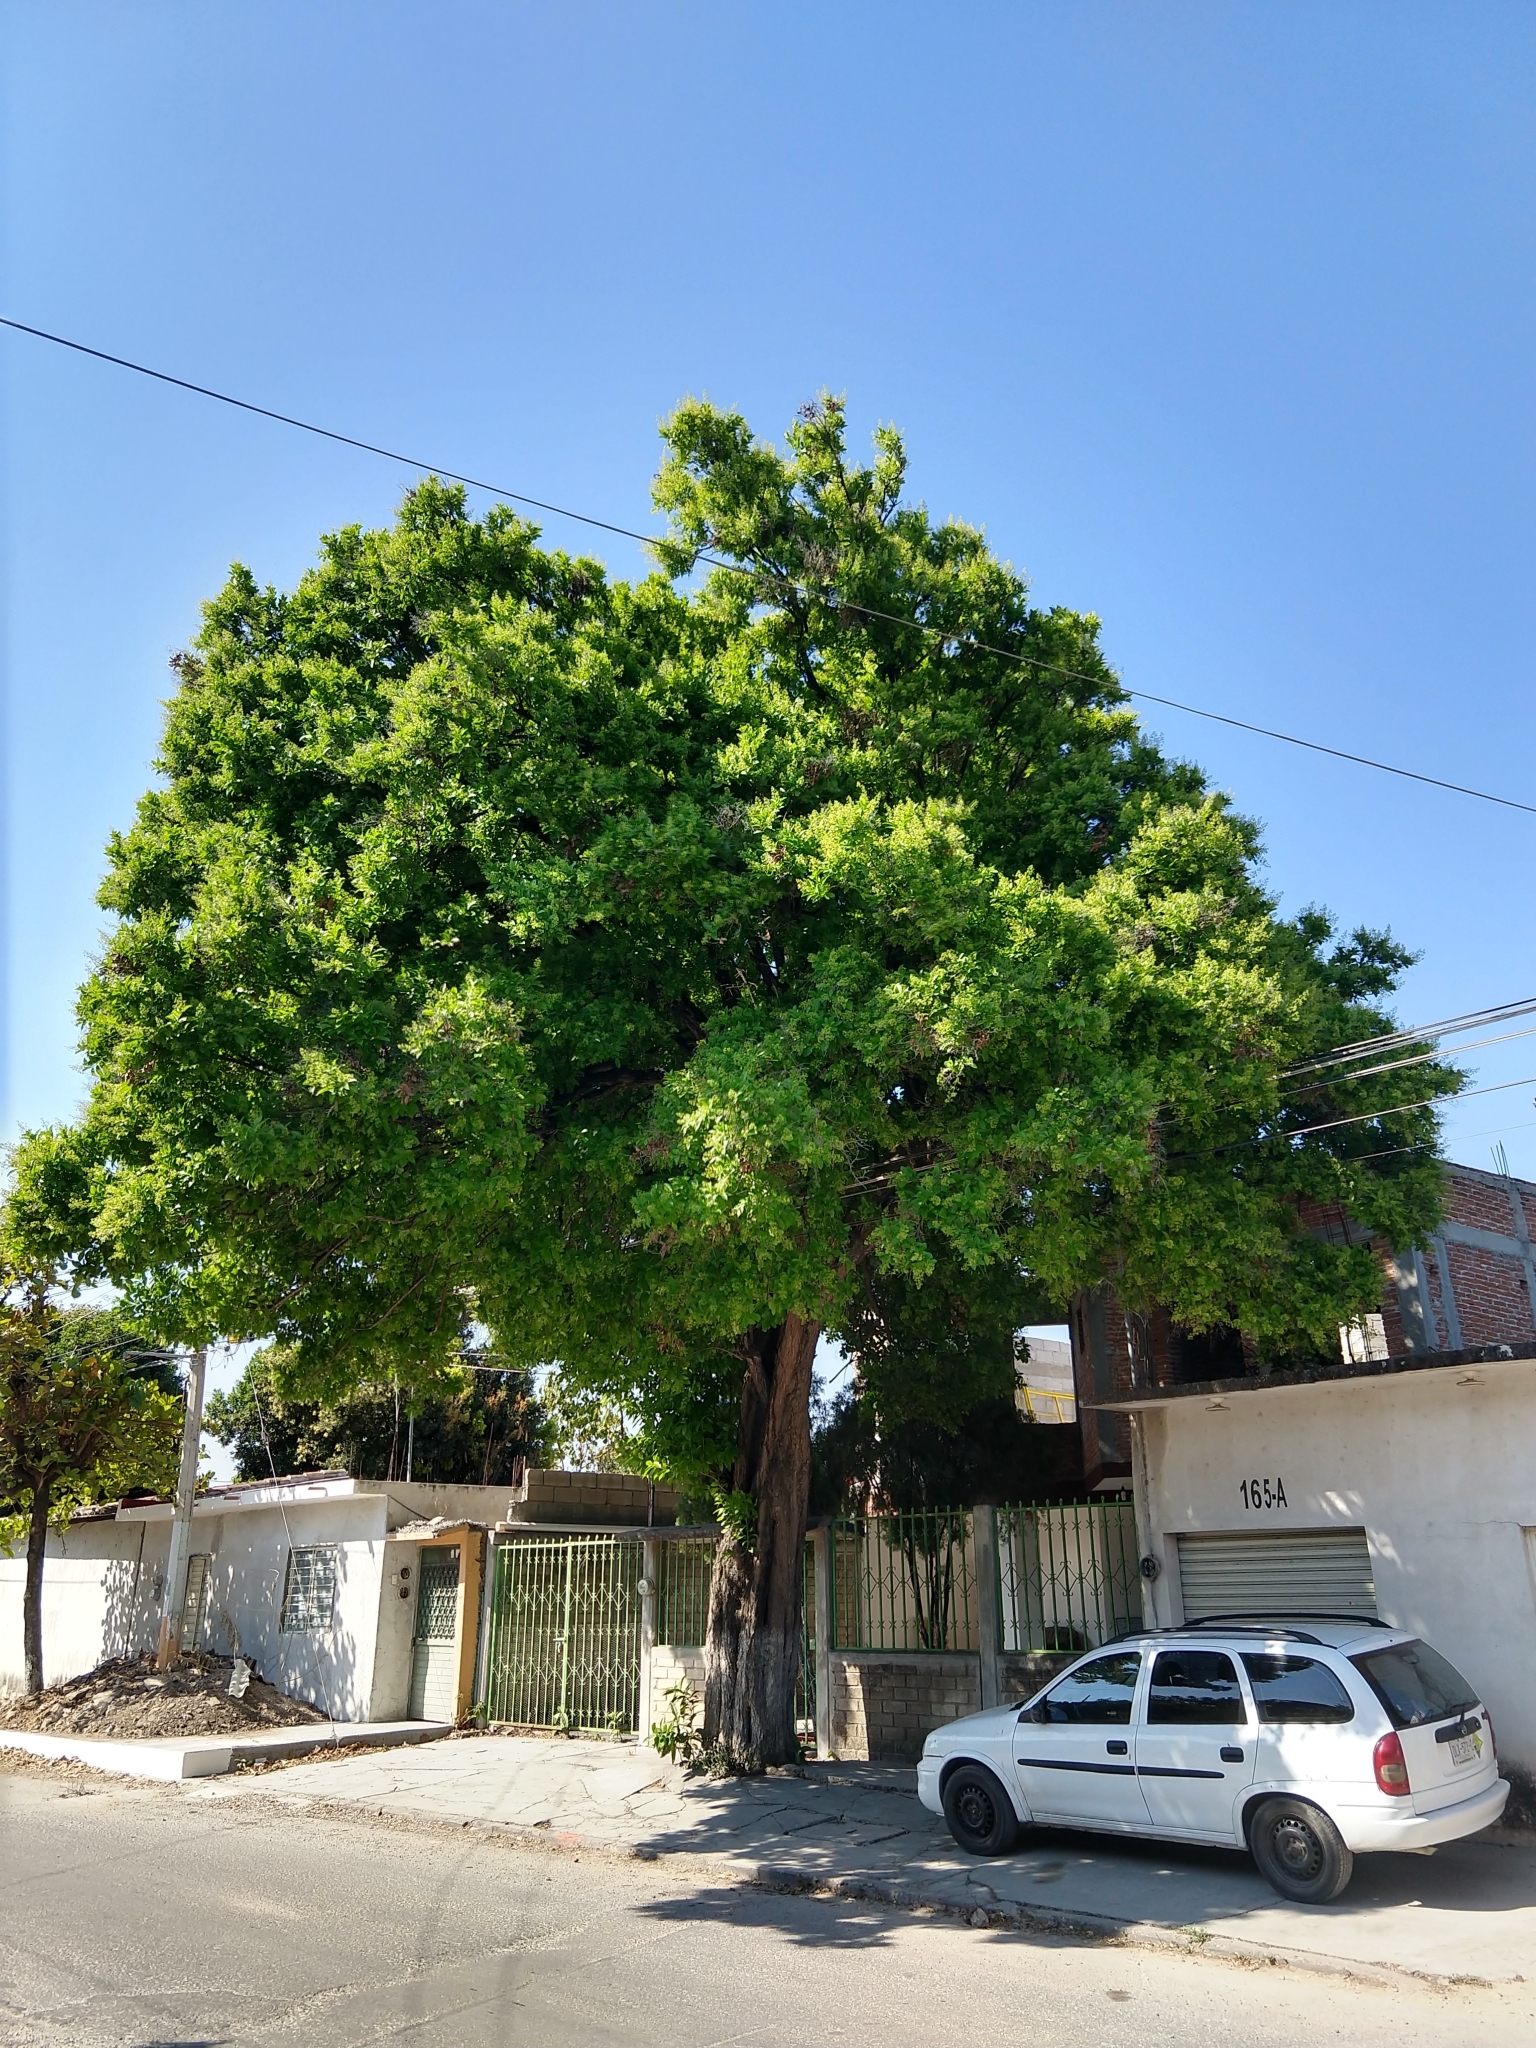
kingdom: Plantae
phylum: Tracheophyta
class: Magnoliopsida
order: Boraginales
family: Ehretiaceae
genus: Ehretia
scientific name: Ehretia tinifolia
